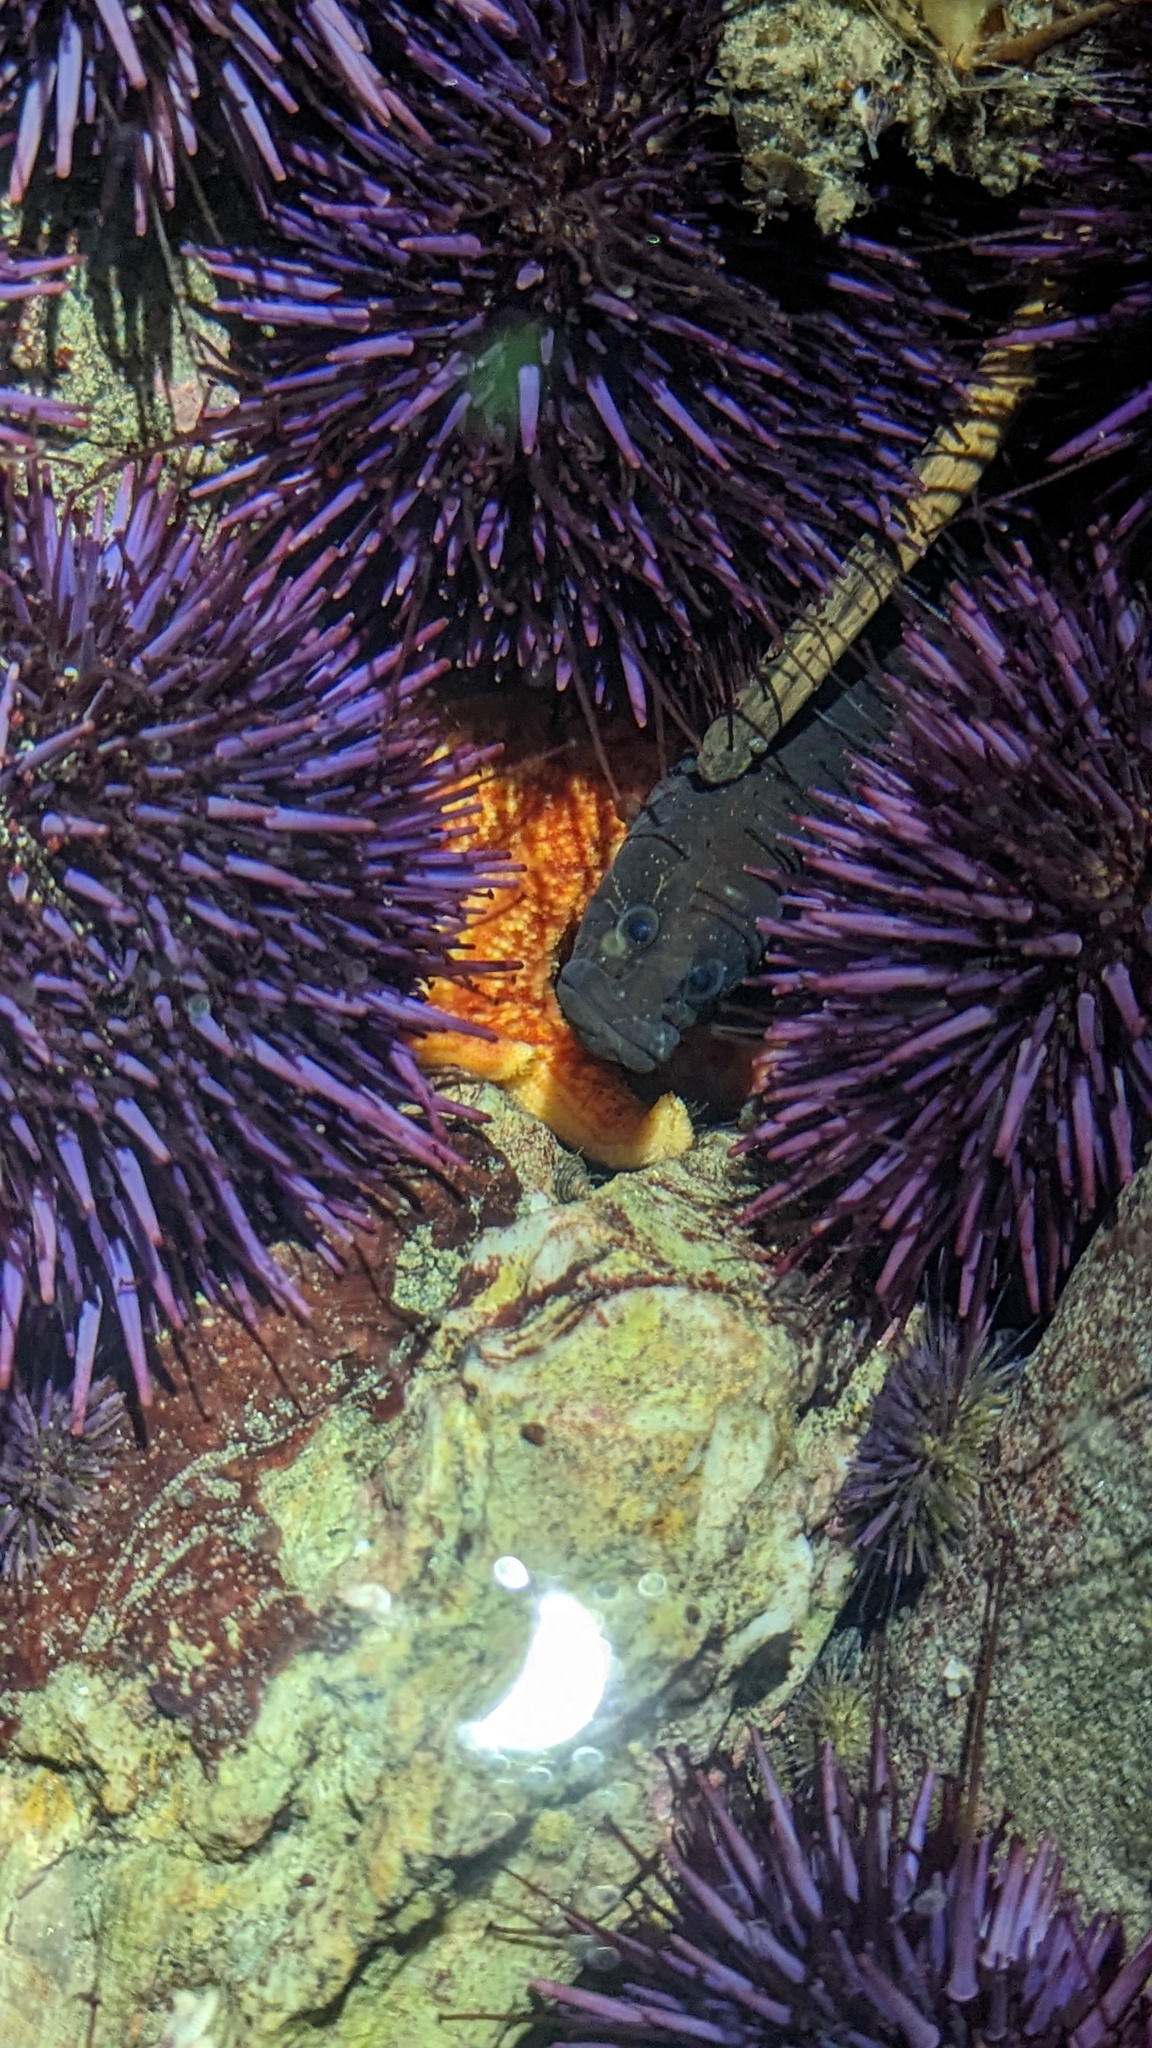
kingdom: Animalia
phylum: Chordata
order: Perciformes
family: Stichaeidae
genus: Xiphister
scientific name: Xiphister atropurpureus
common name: Black prickleback
